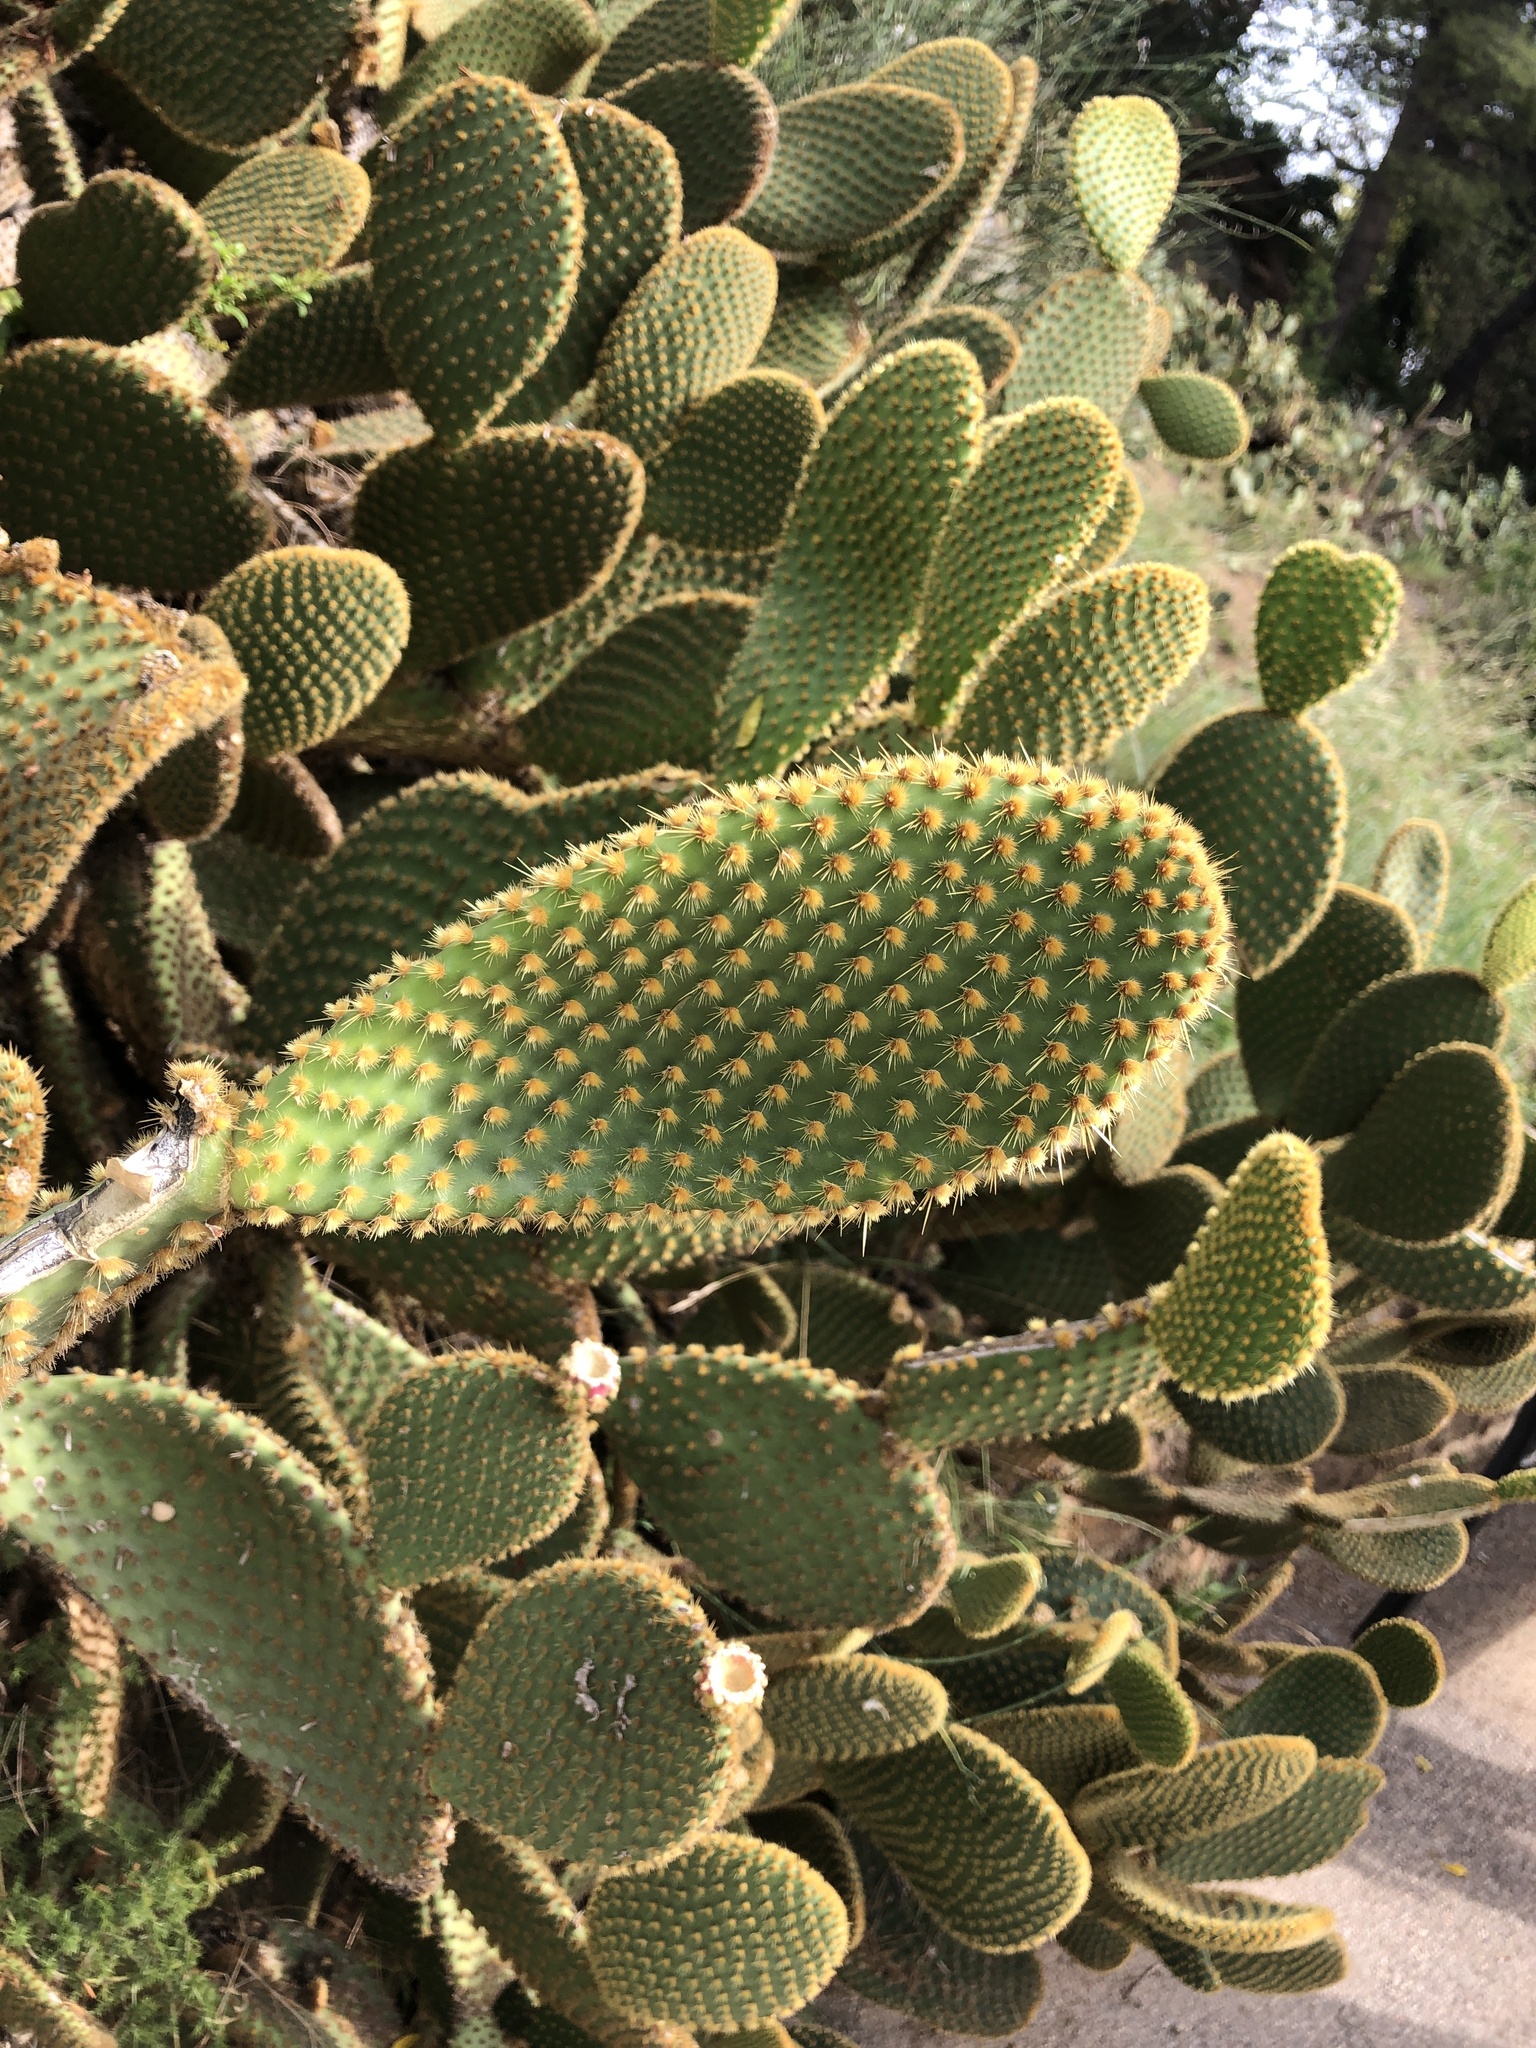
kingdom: Plantae
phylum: Tracheophyta
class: Magnoliopsida
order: Caryophyllales
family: Cactaceae
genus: Opuntia
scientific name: Opuntia microdasys
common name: Angel's-wings
